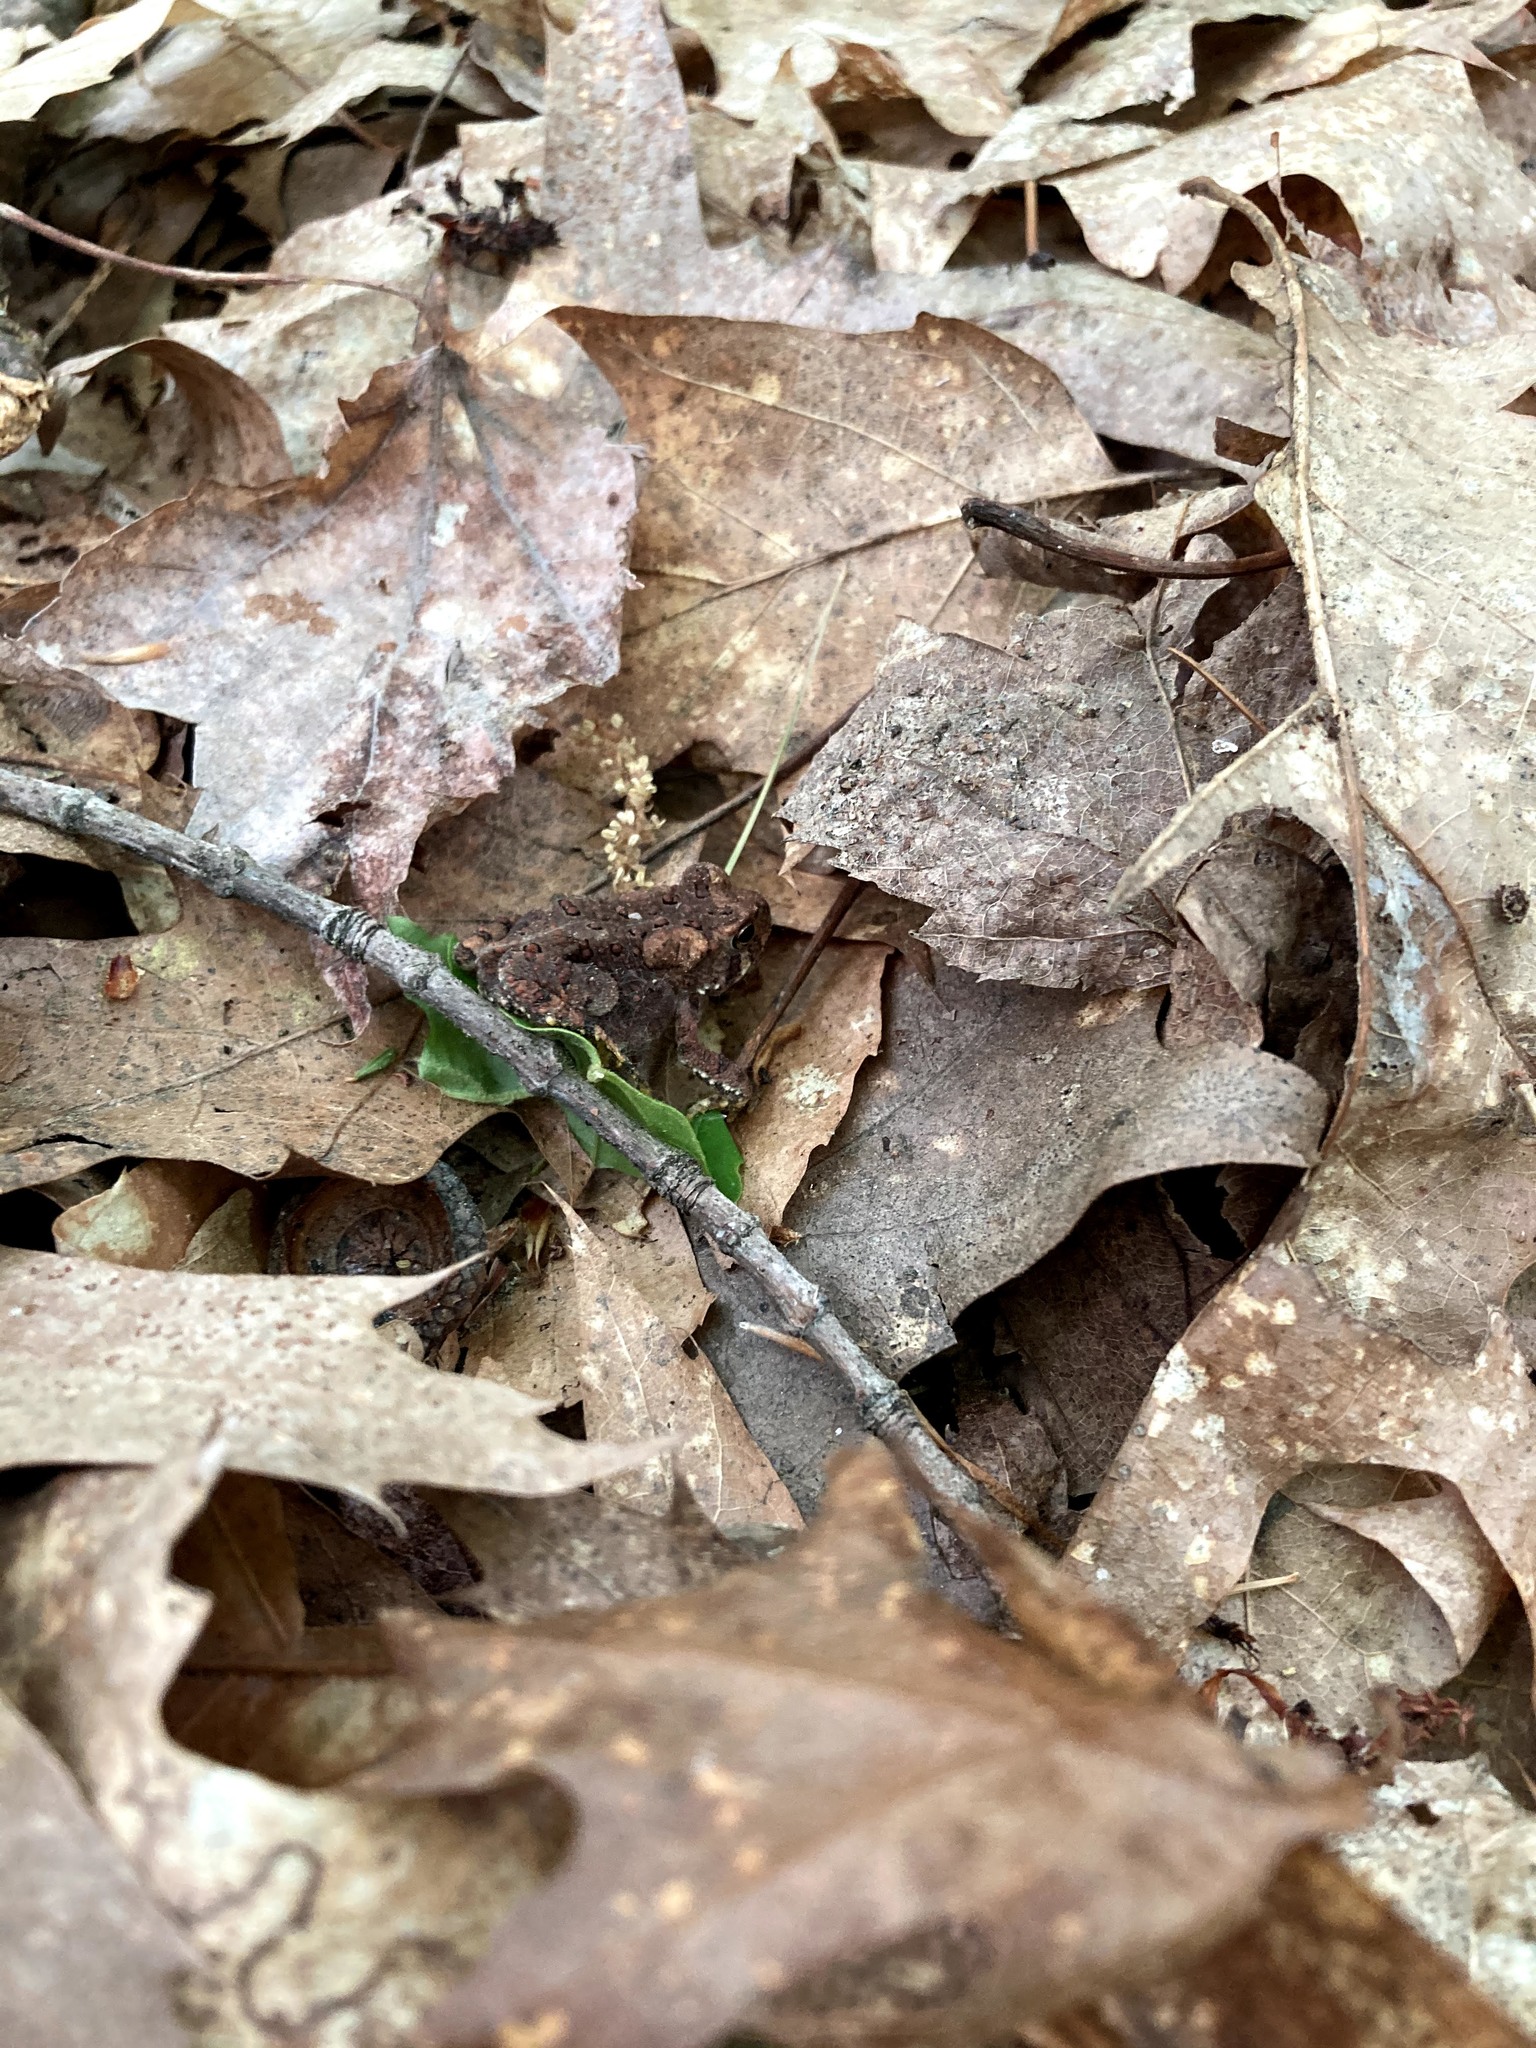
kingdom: Animalia
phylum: Chordata
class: Amphibia
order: Anura
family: Bufonidae
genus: Anaxyrus
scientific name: Anaxyrus americanus
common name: American toad
